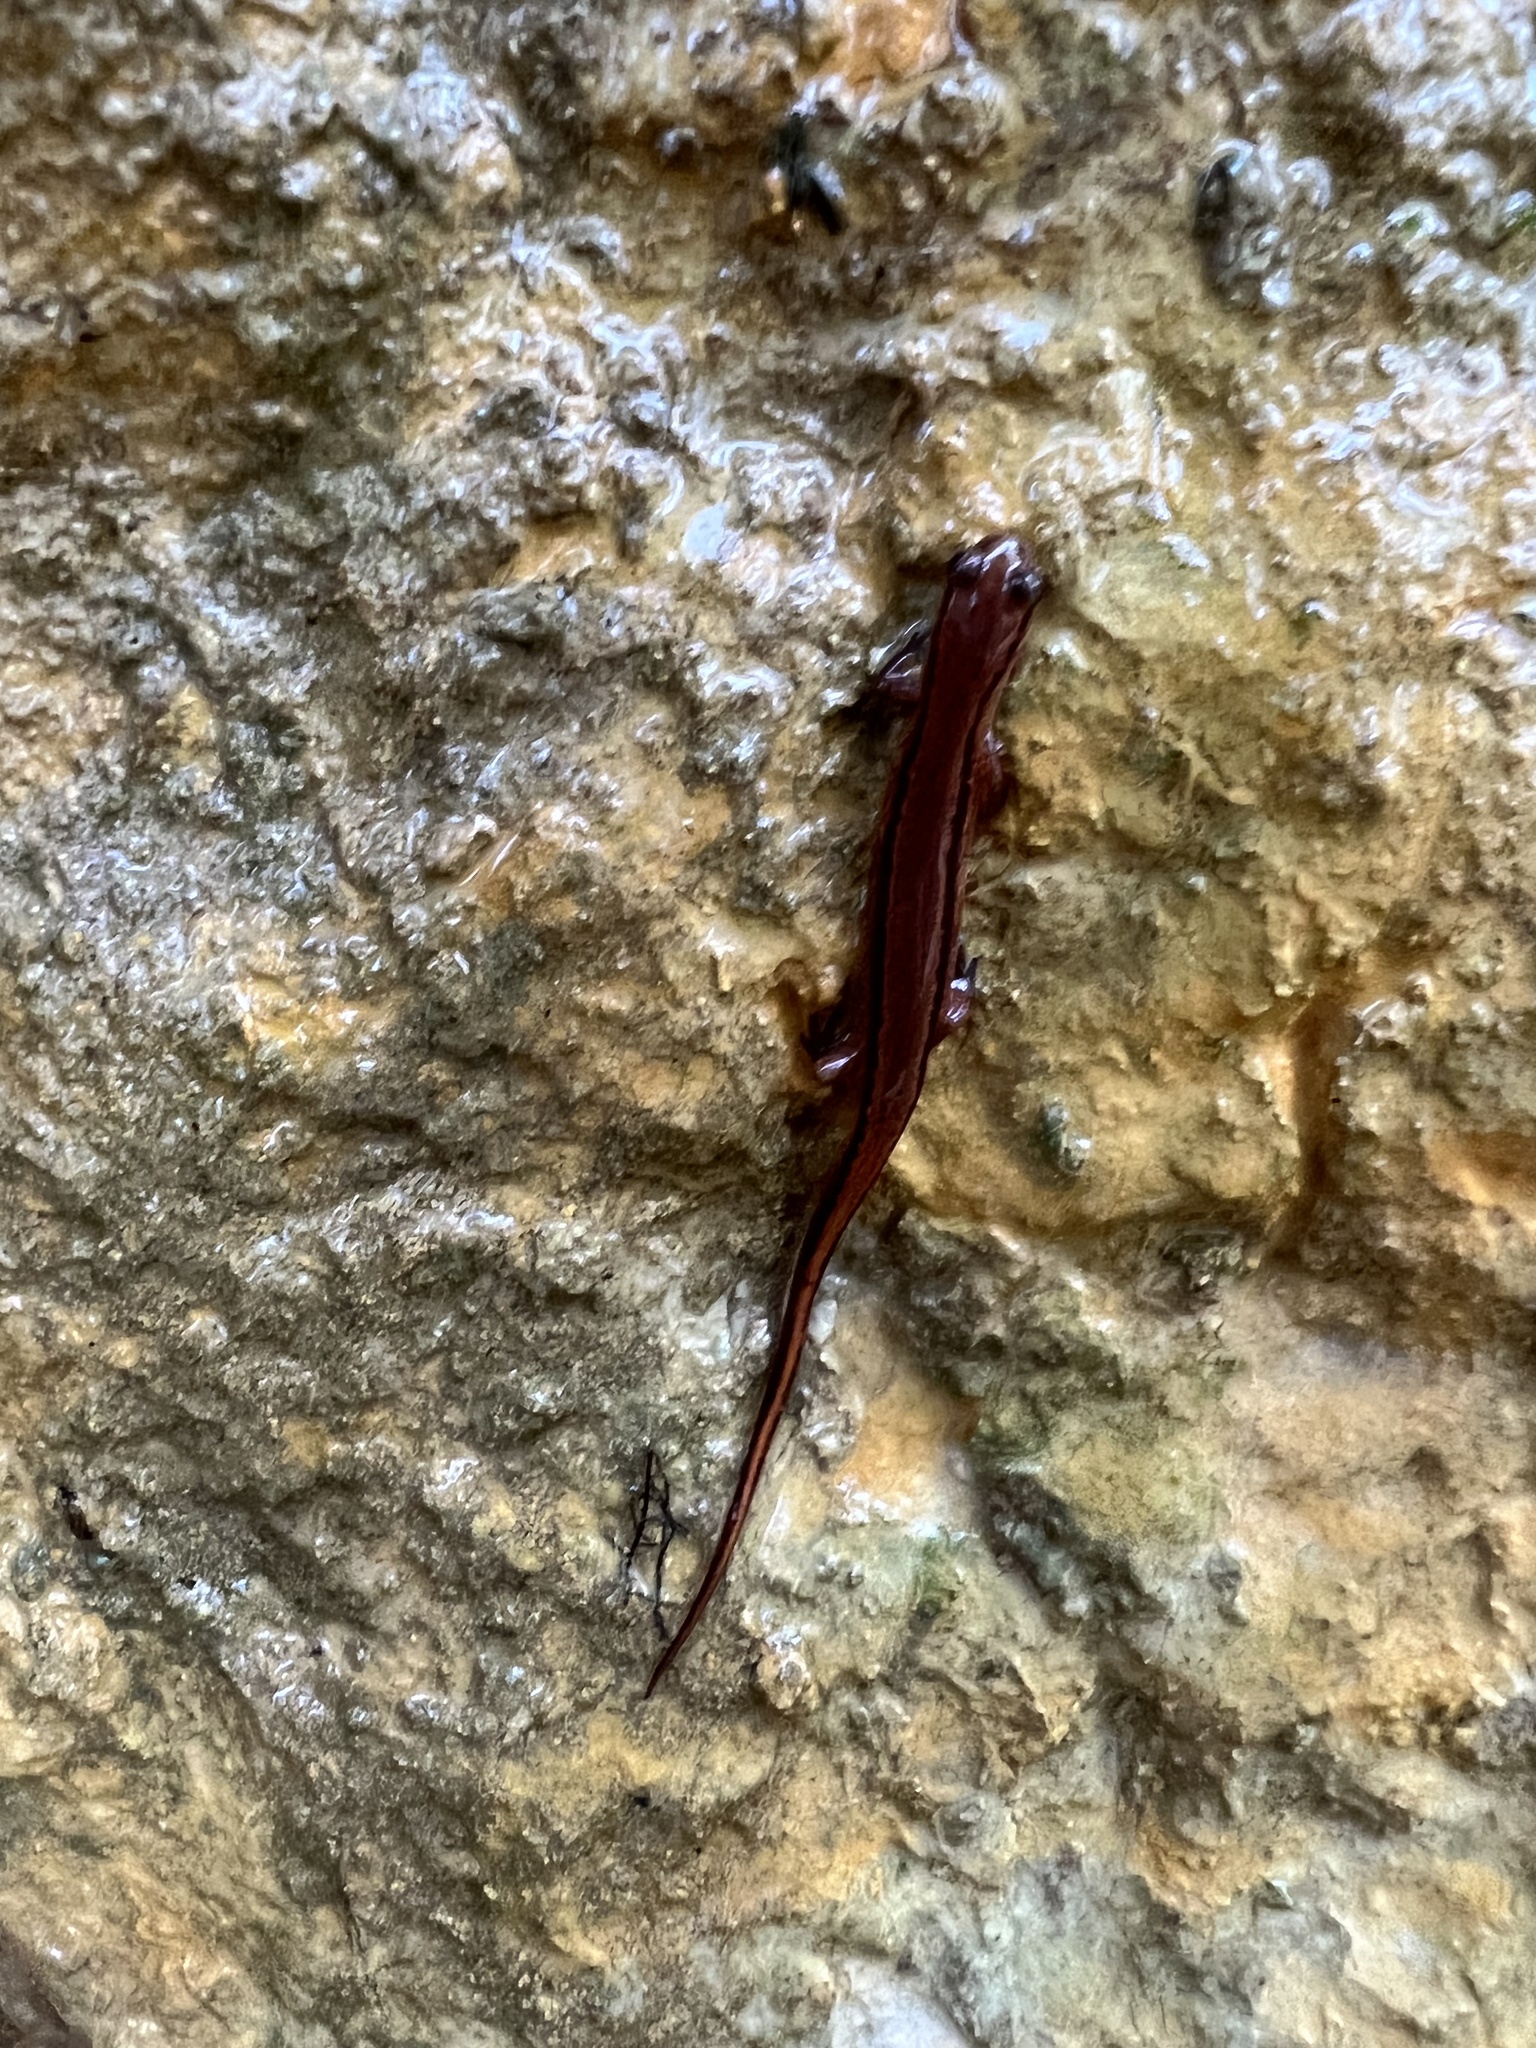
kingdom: Animalia
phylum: Chordata
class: Amphibia
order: Caudata
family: Plethodontidae
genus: Eurycea
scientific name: Eurycea cirrigera
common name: Southern two-lined salamander
